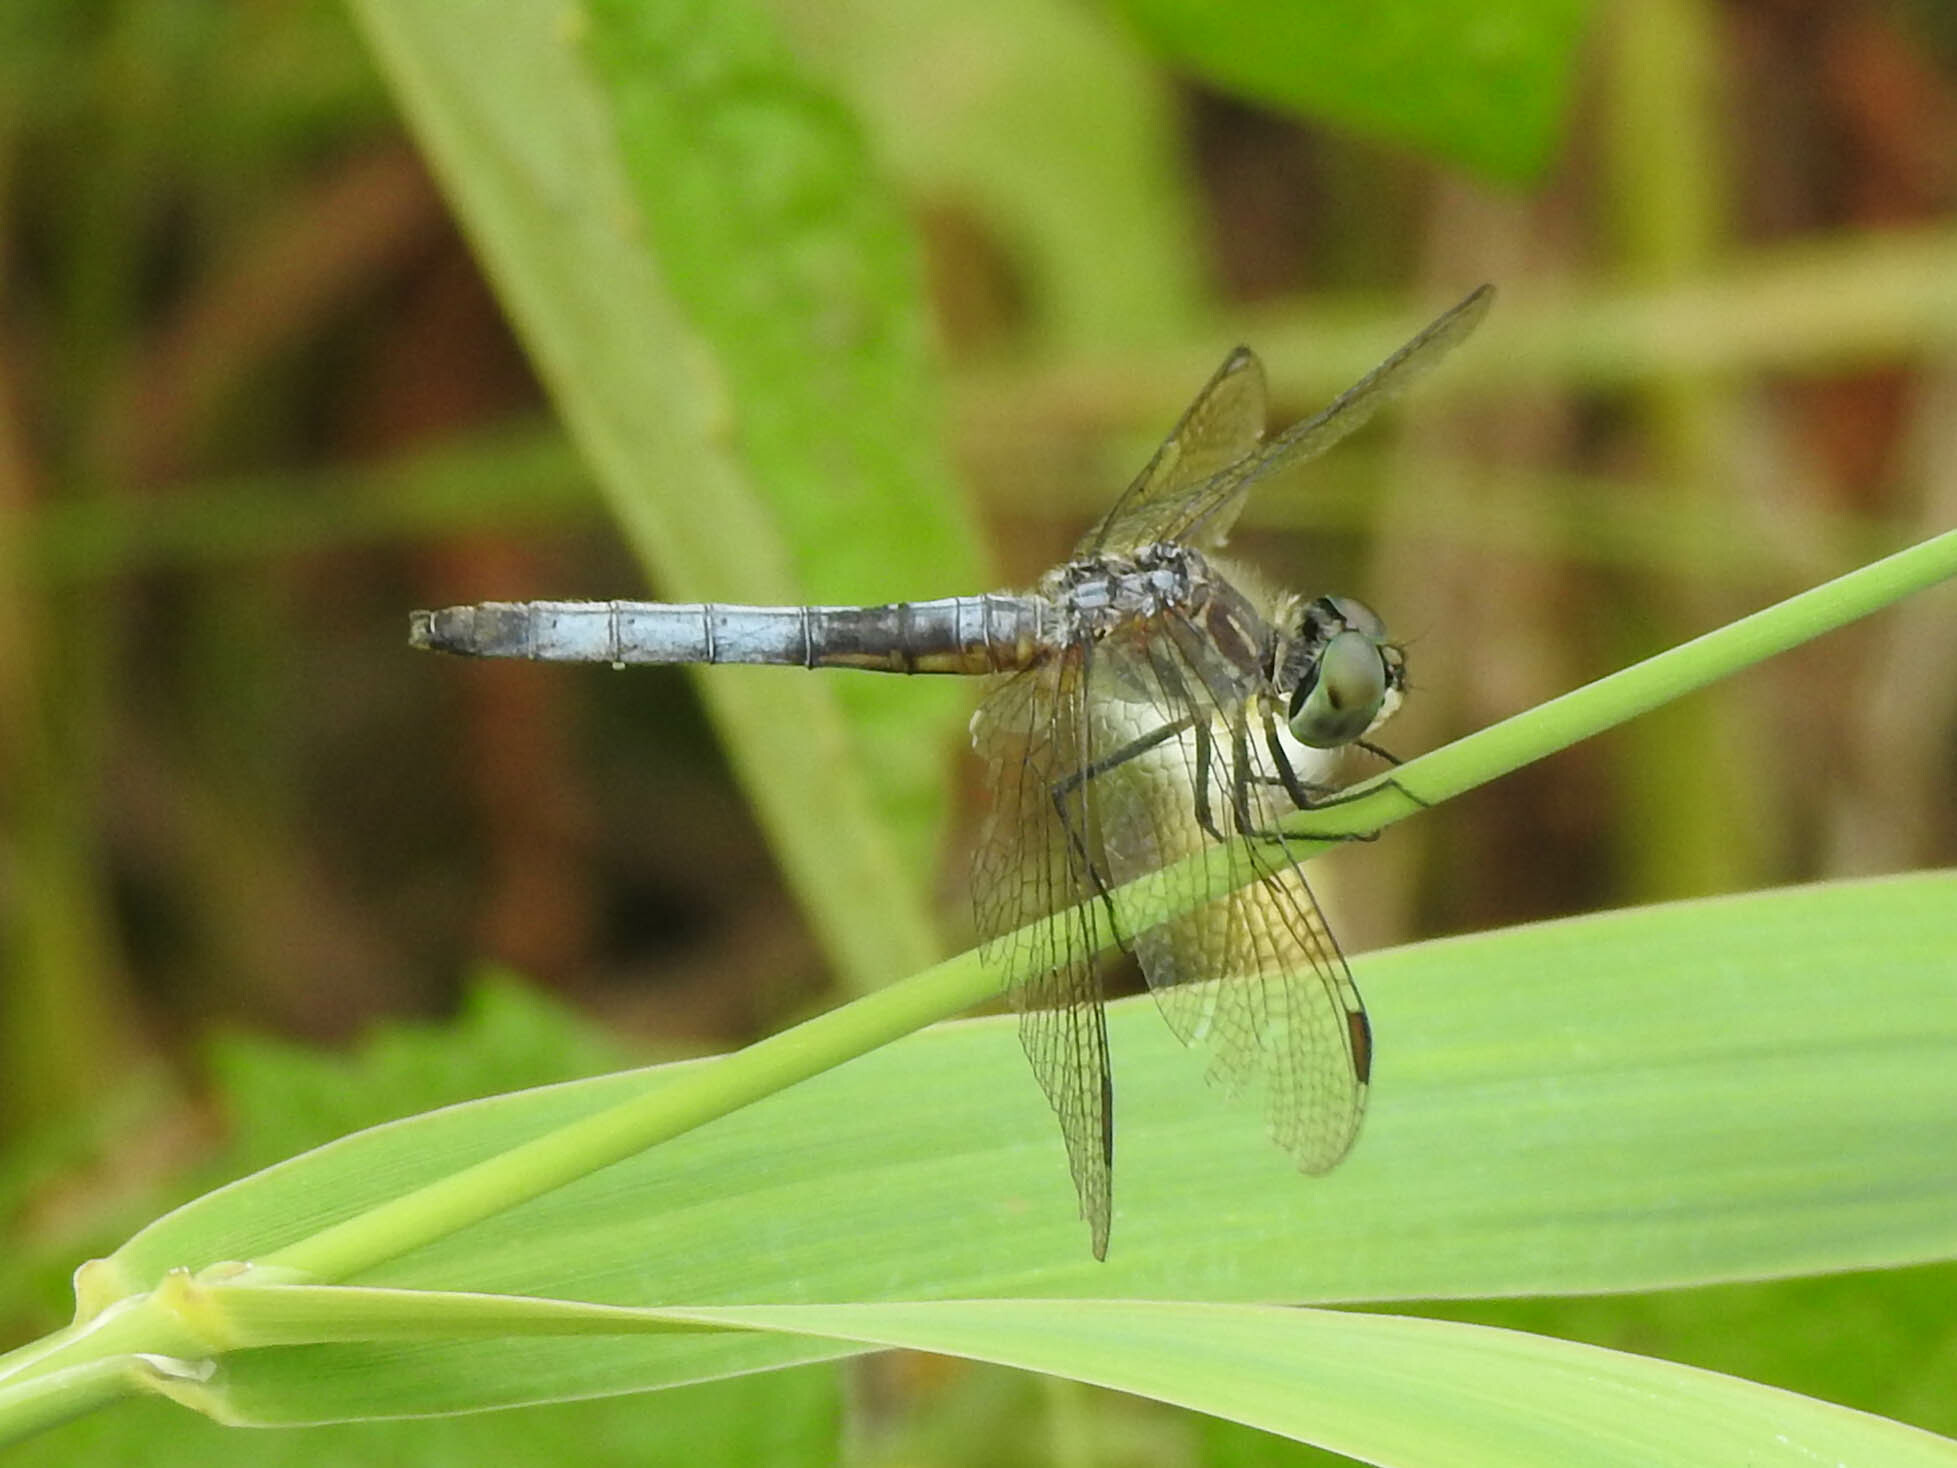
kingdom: Animalia
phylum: Arthropoda
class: Insecta
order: Odonata
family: Libellulidae
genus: Pachydiplax
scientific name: Pachydiplax longipennis
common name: Blue dasher
